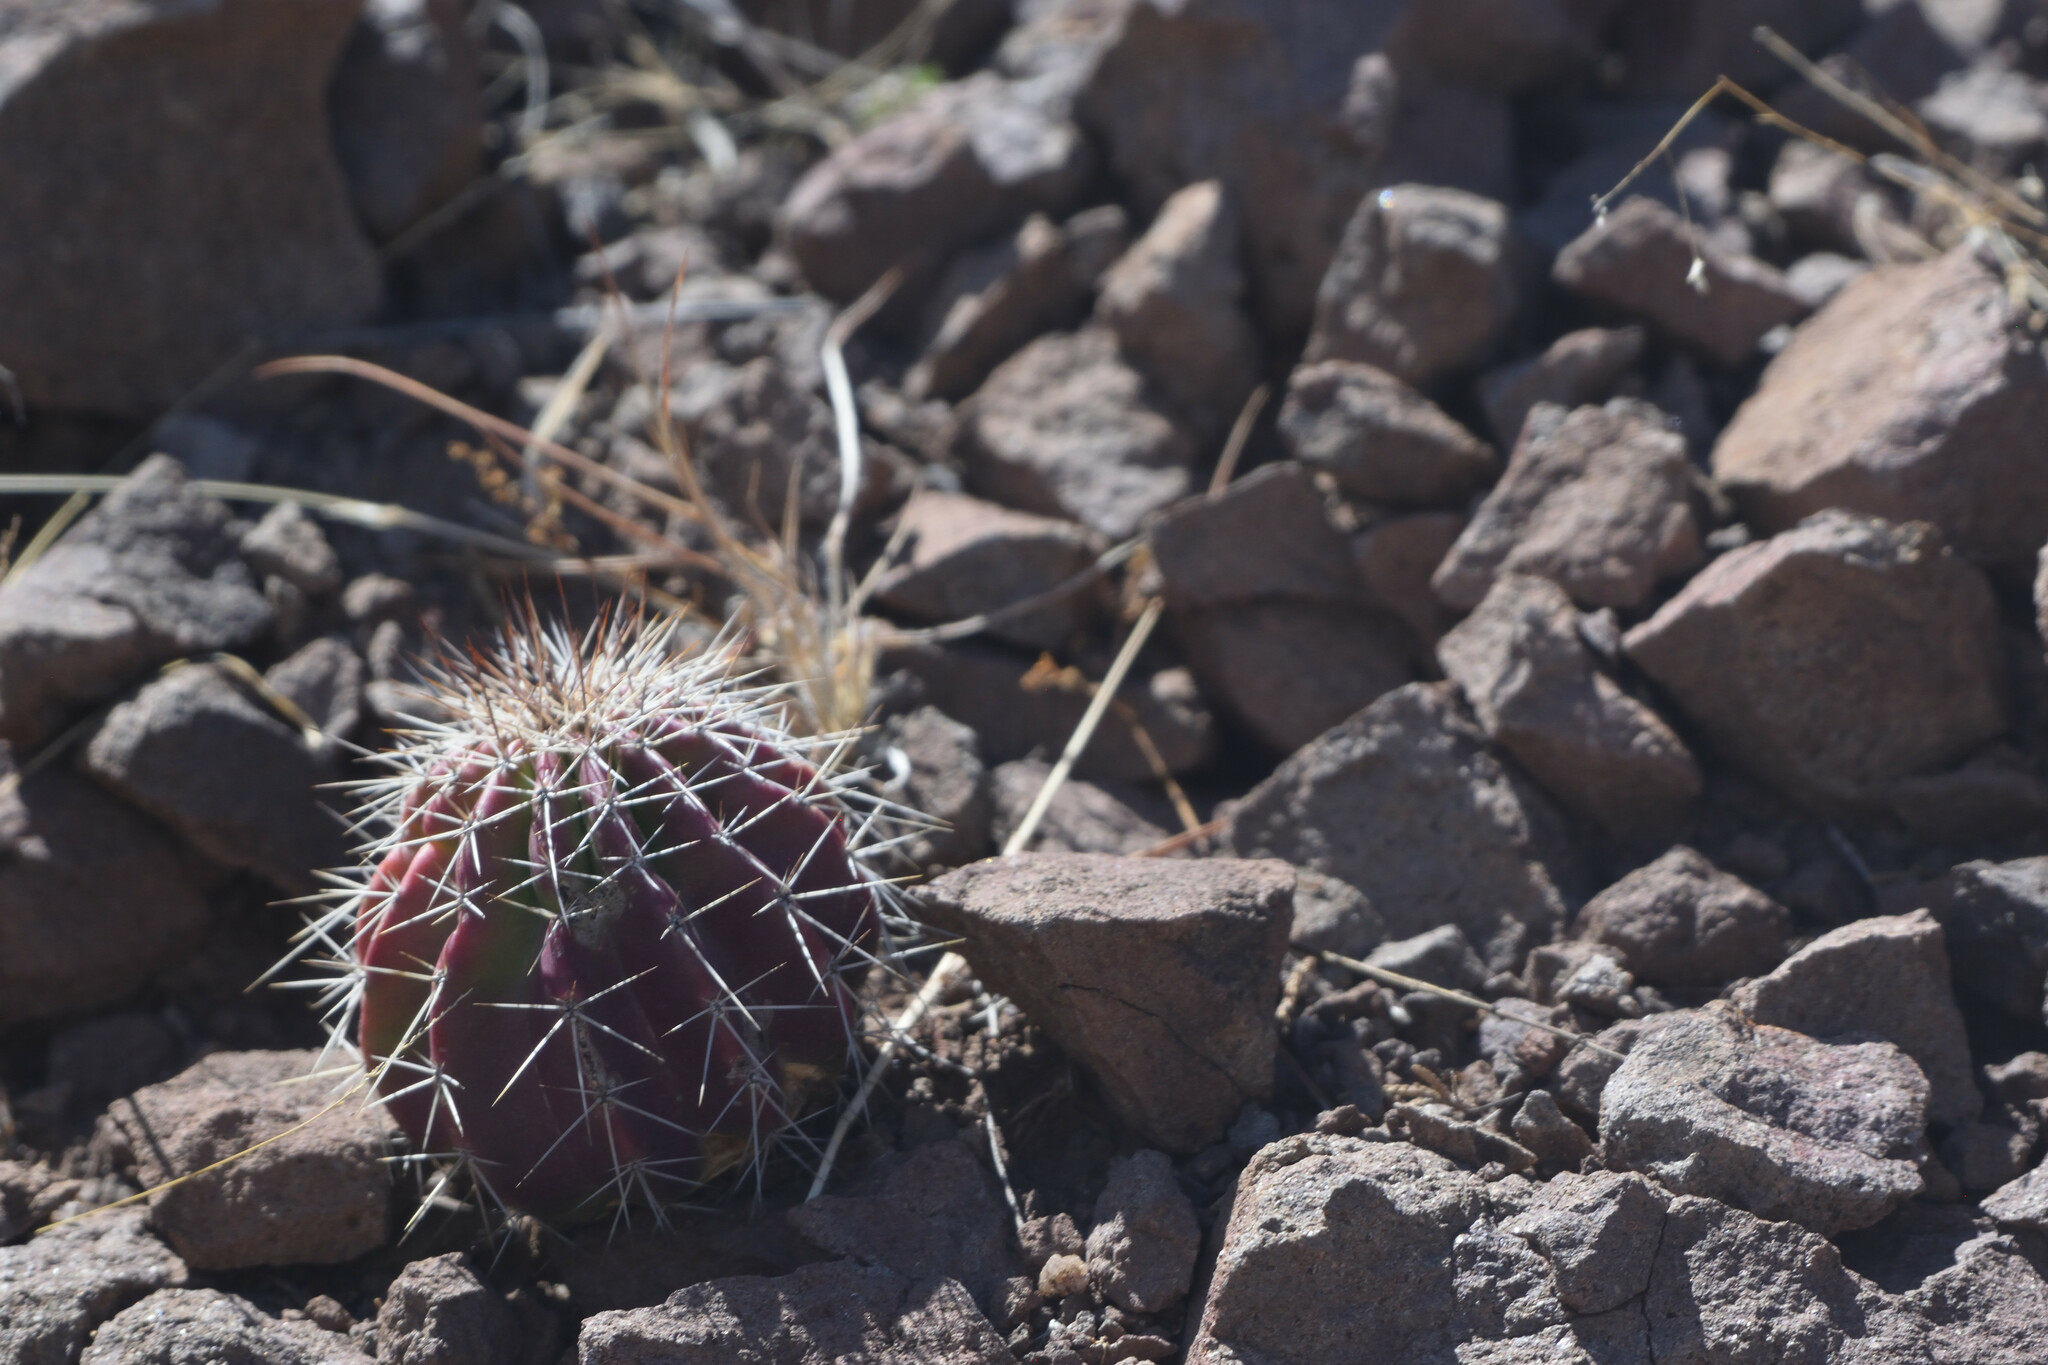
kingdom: Plantae
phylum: Tracheophyta
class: Magnoliopsida
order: Caryophyllales
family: Cactaceae
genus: Echinocereus
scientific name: Echinocereus stolonifer
